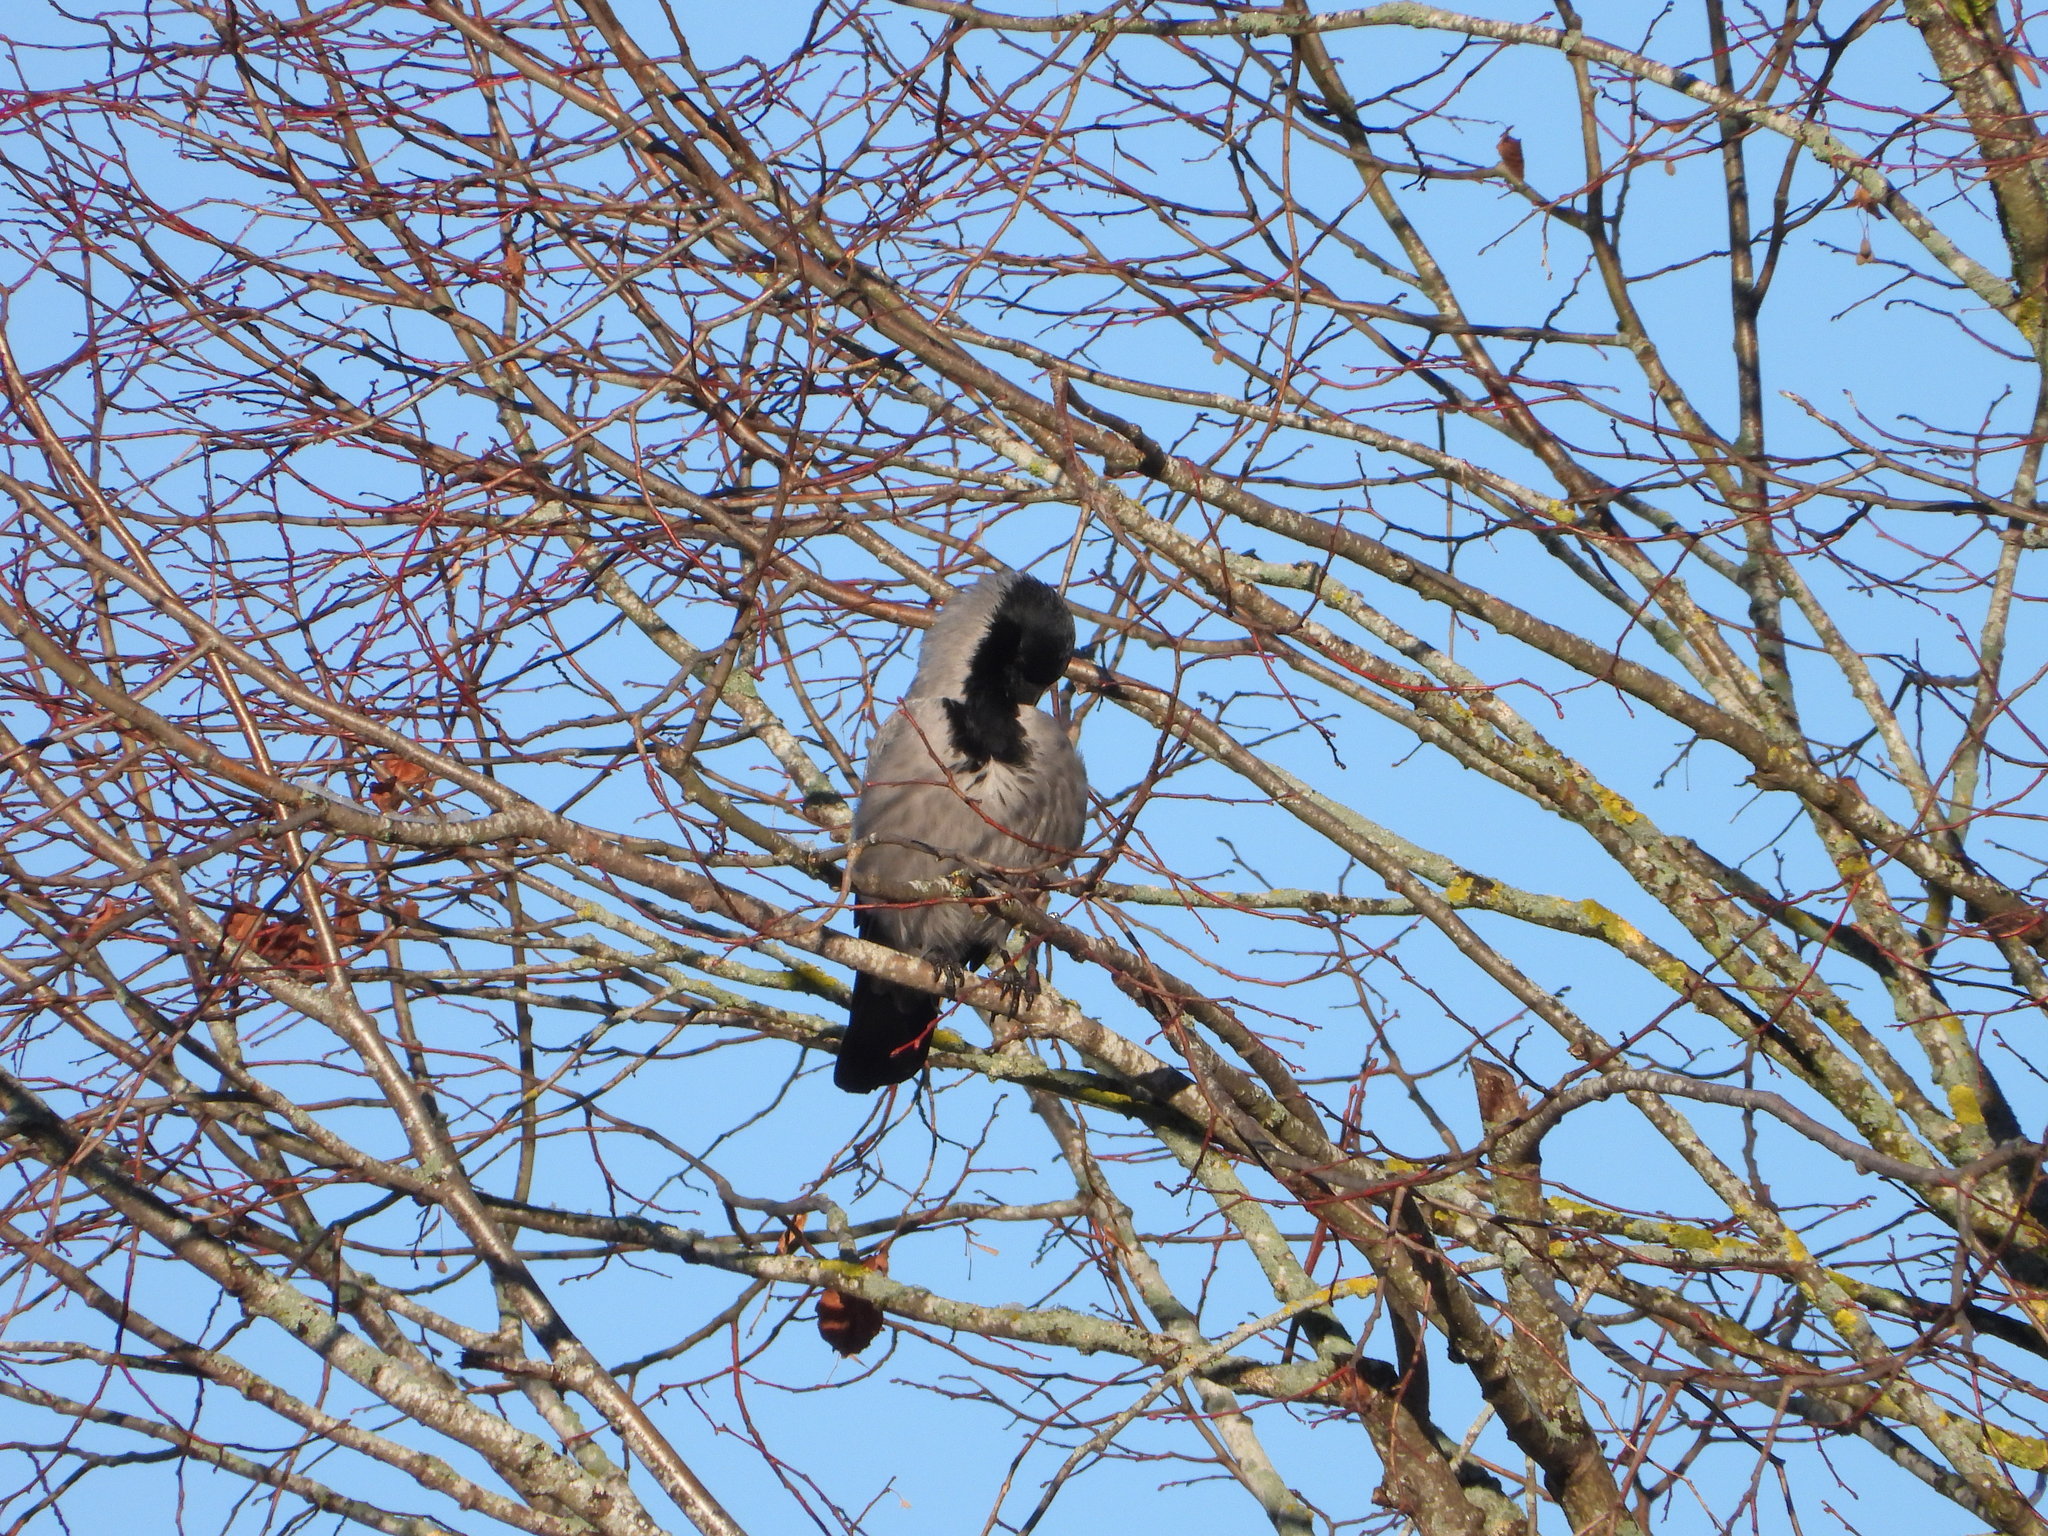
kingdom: Animalia
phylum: Chordata
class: Aves
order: Passeriformes
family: Corvidae
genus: Corvus
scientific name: Corvus cornix
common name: Hooded crow
